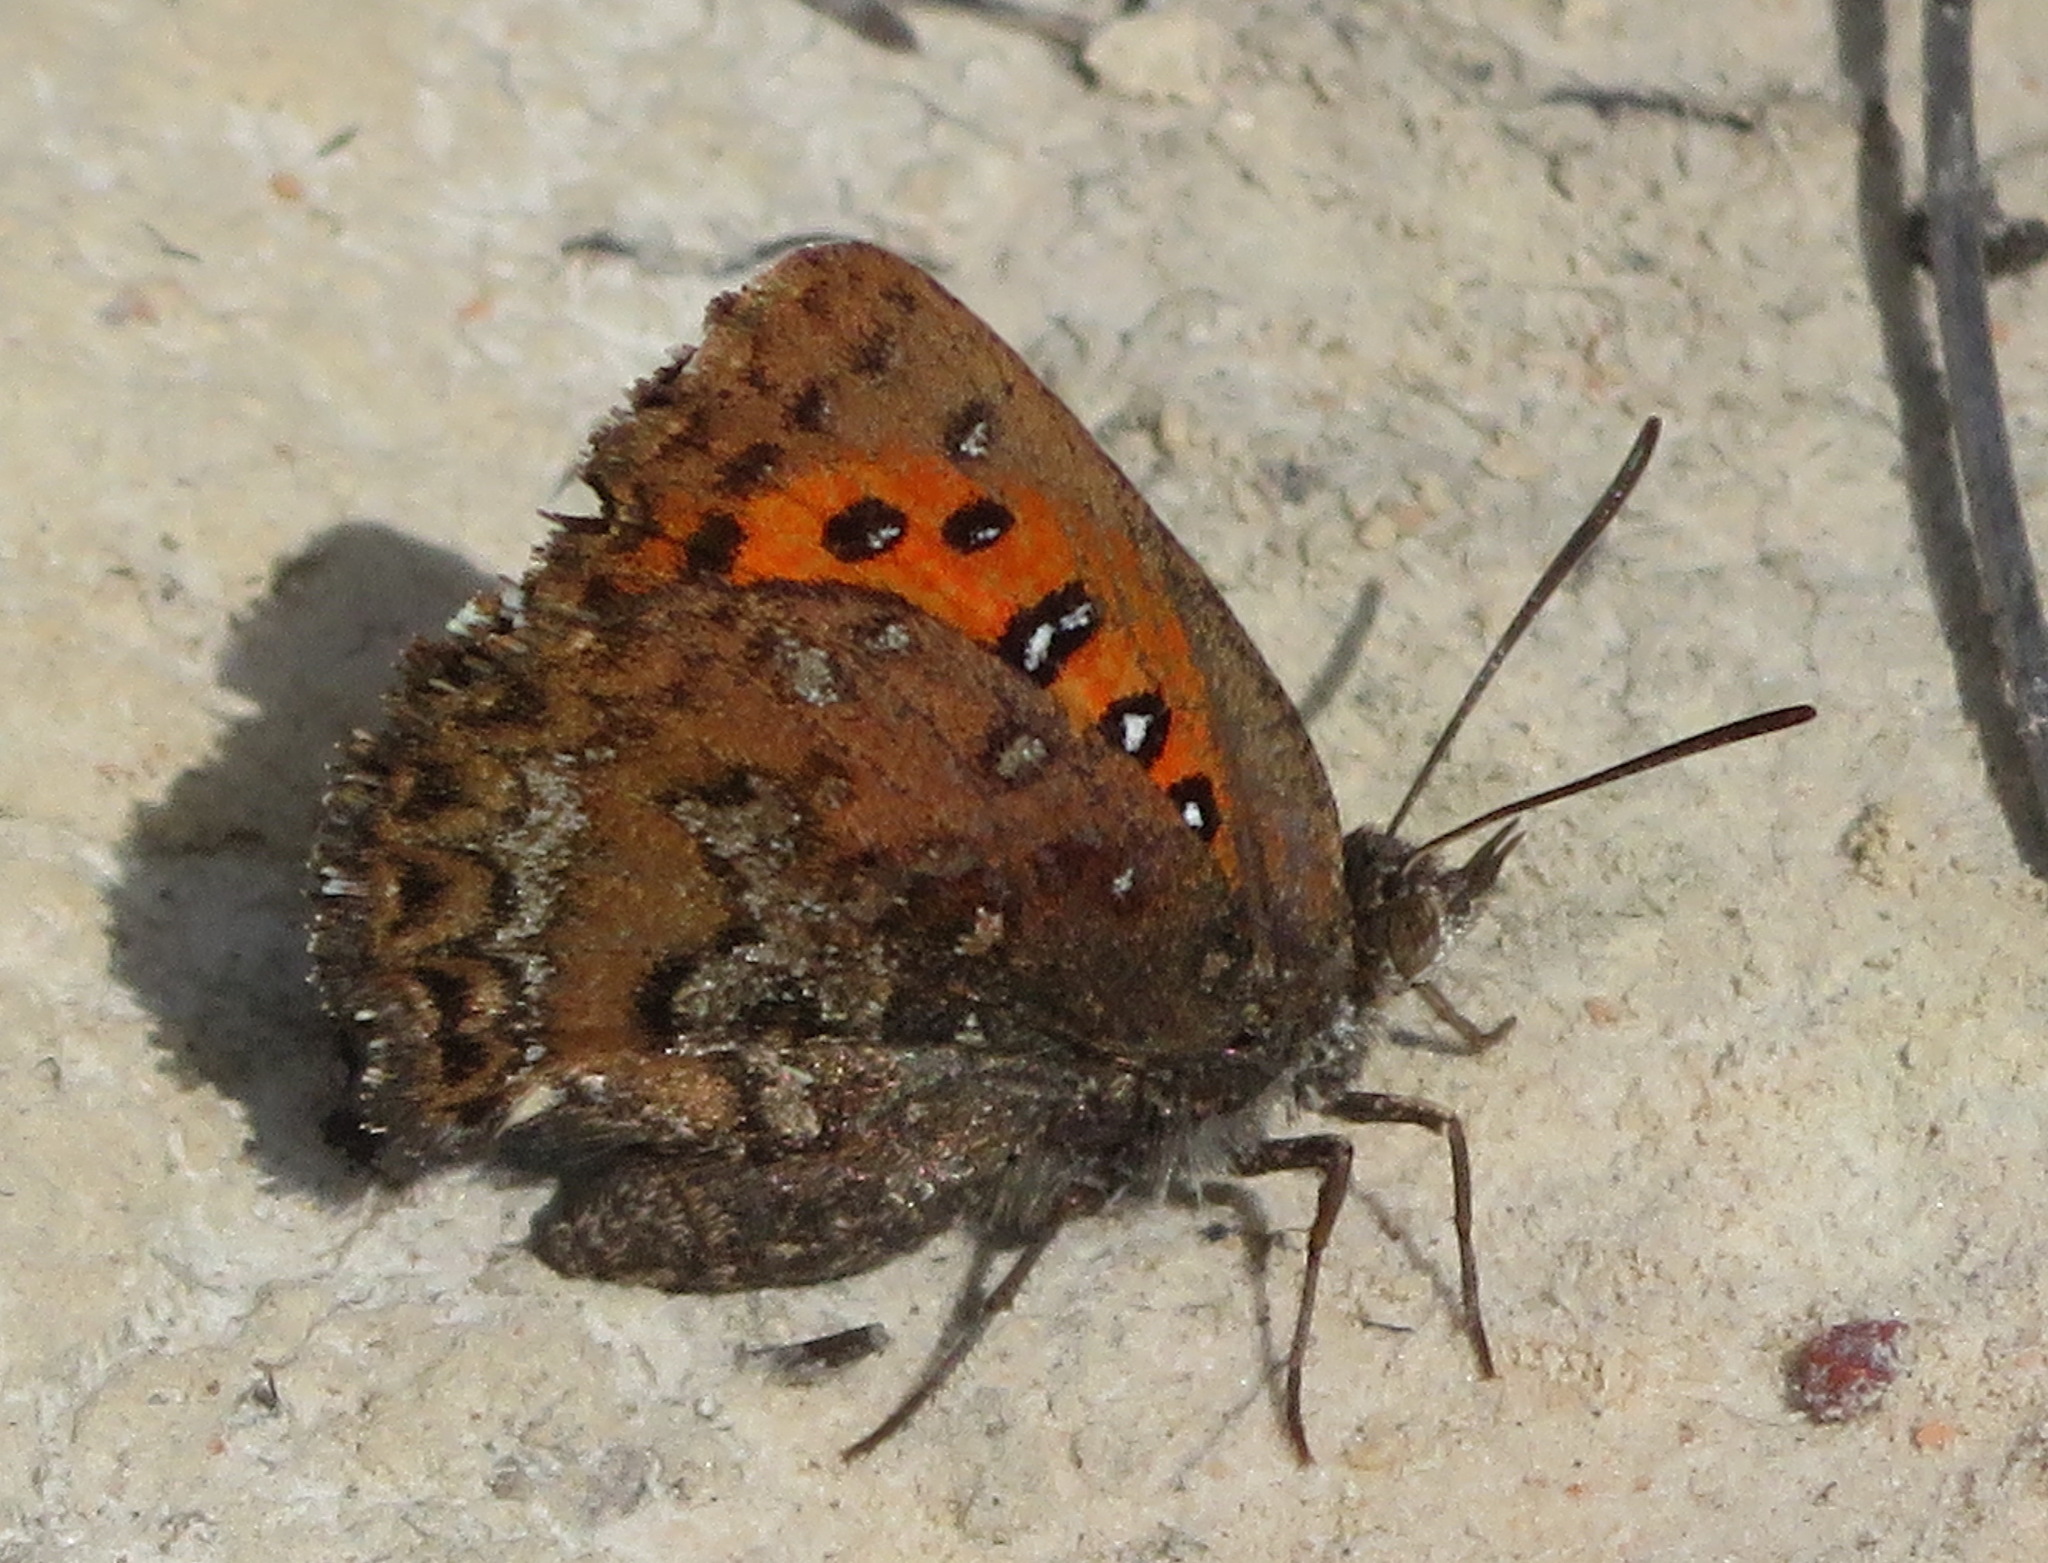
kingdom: Animalia
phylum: Arthropoda
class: Insecta
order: Lepidoptera
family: Lycaenidae
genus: Aloeides
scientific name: Aloeides depicta
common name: Depicta copper
